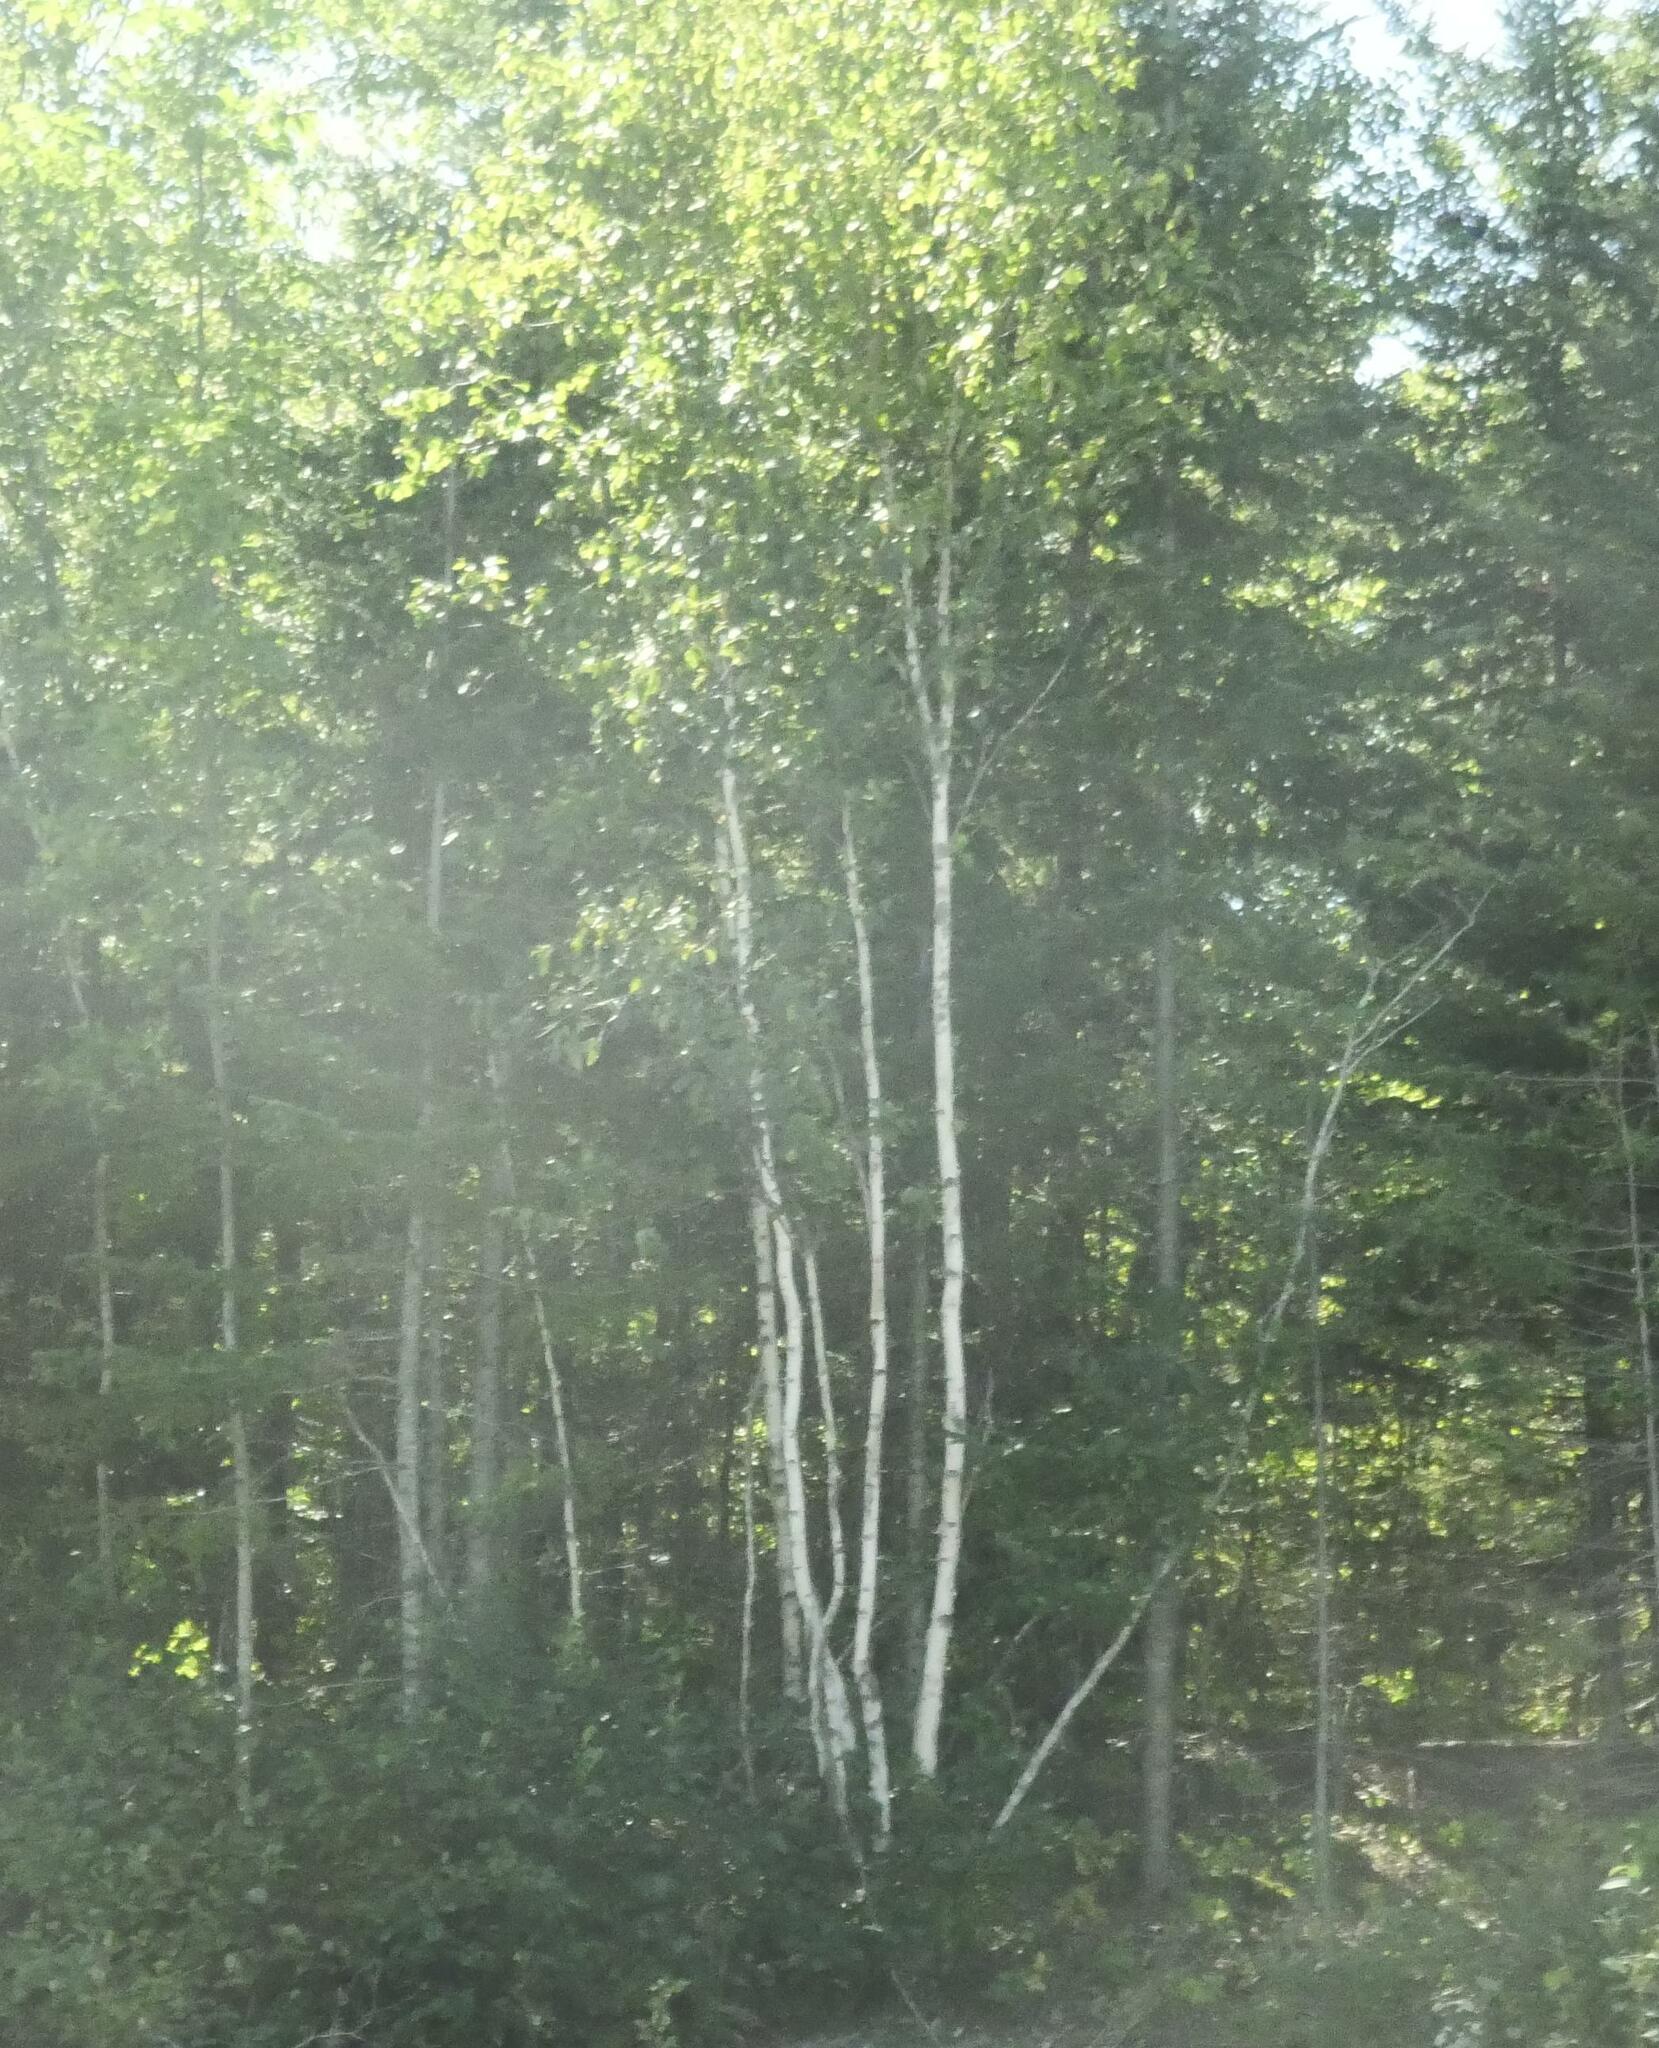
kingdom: Plantae
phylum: Tracheophyta
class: Magnoliopsida
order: Fagales
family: Betulaceae
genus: Betula
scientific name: Betula papyrifera
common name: Paper birch
